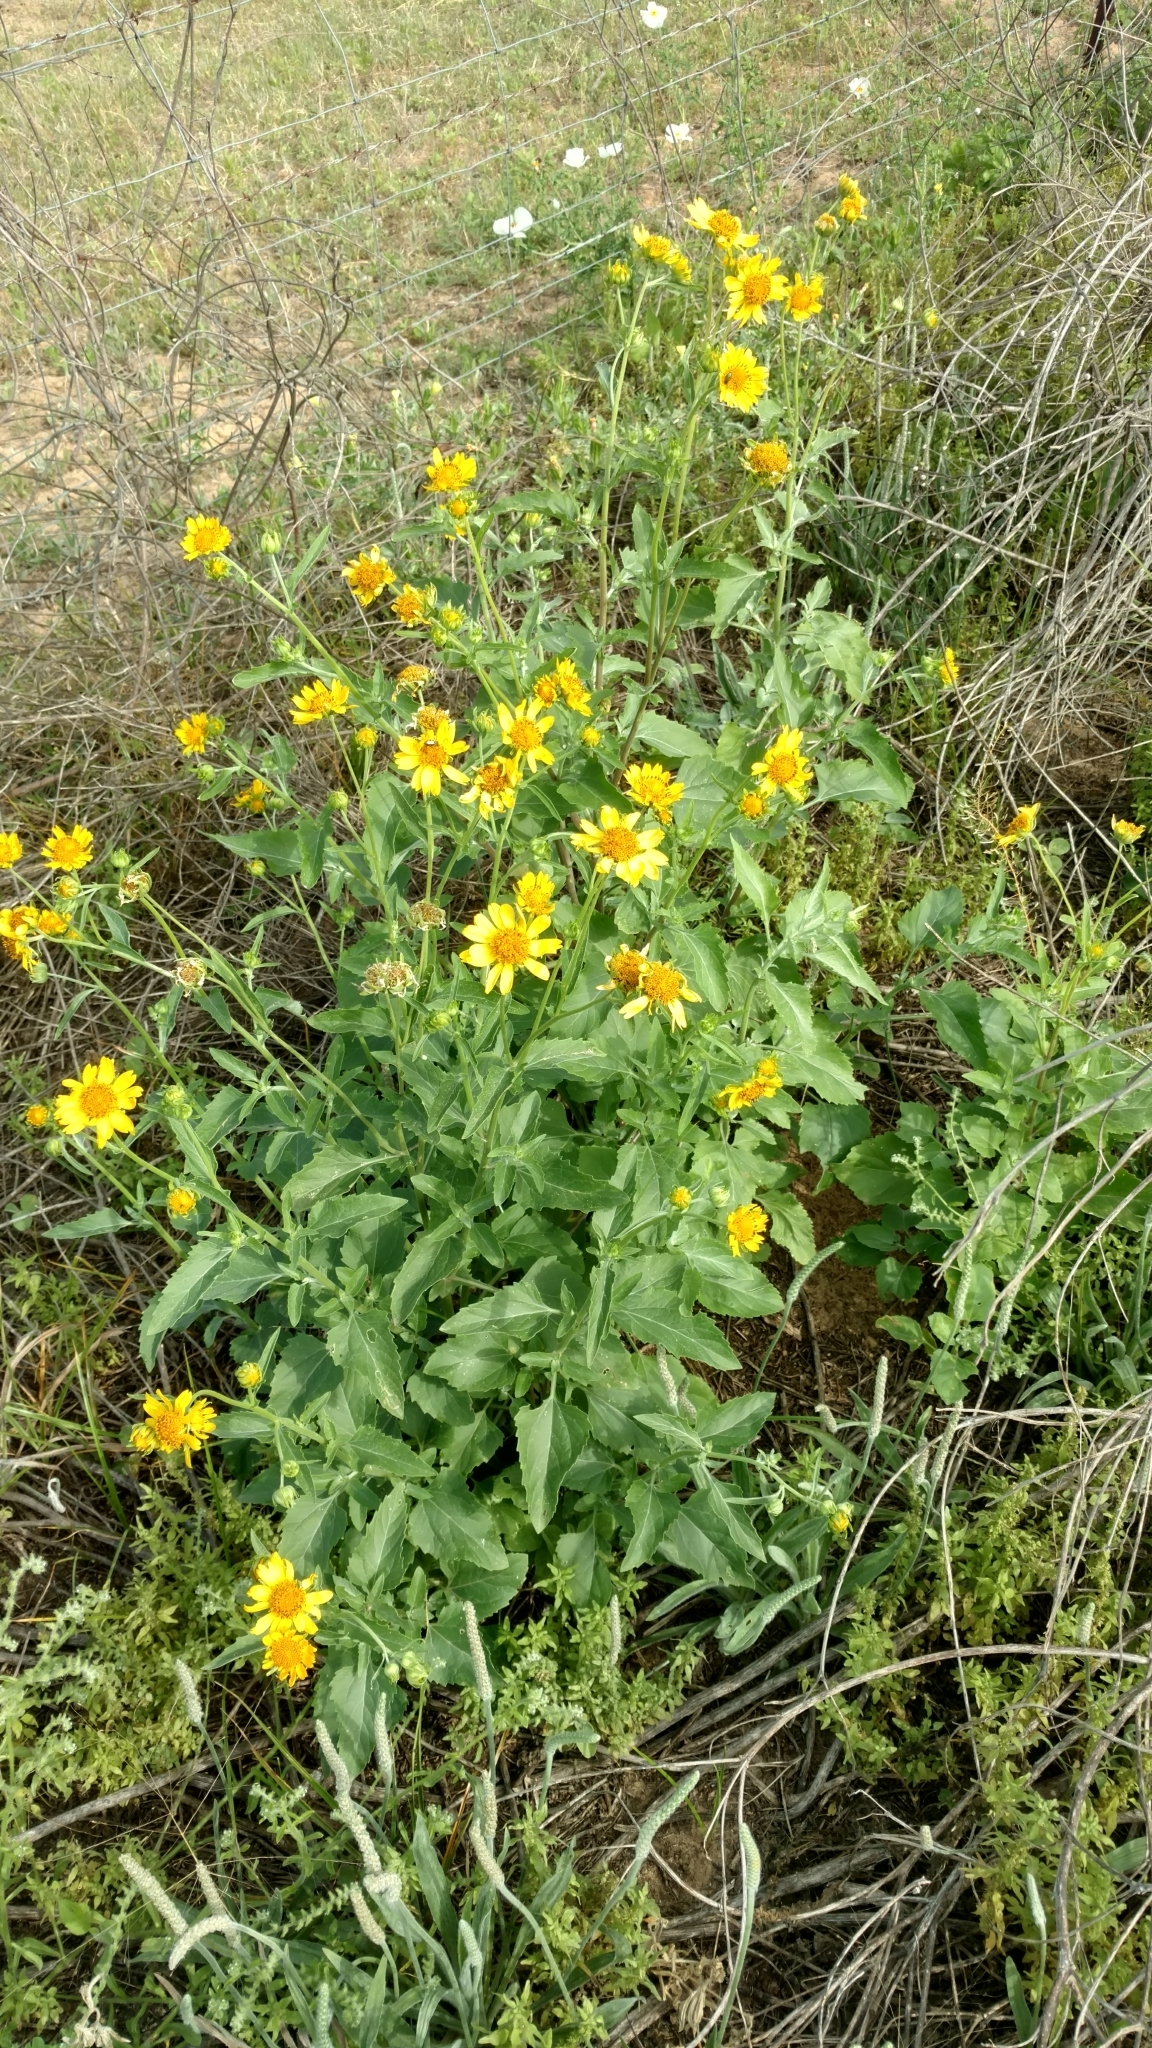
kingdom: Plantae
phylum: Tracheophyta
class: Magnoliopsida
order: Asterales
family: Asteraceae
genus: Verbesina
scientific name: Verbesina encelioides
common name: Golden crownbeard
